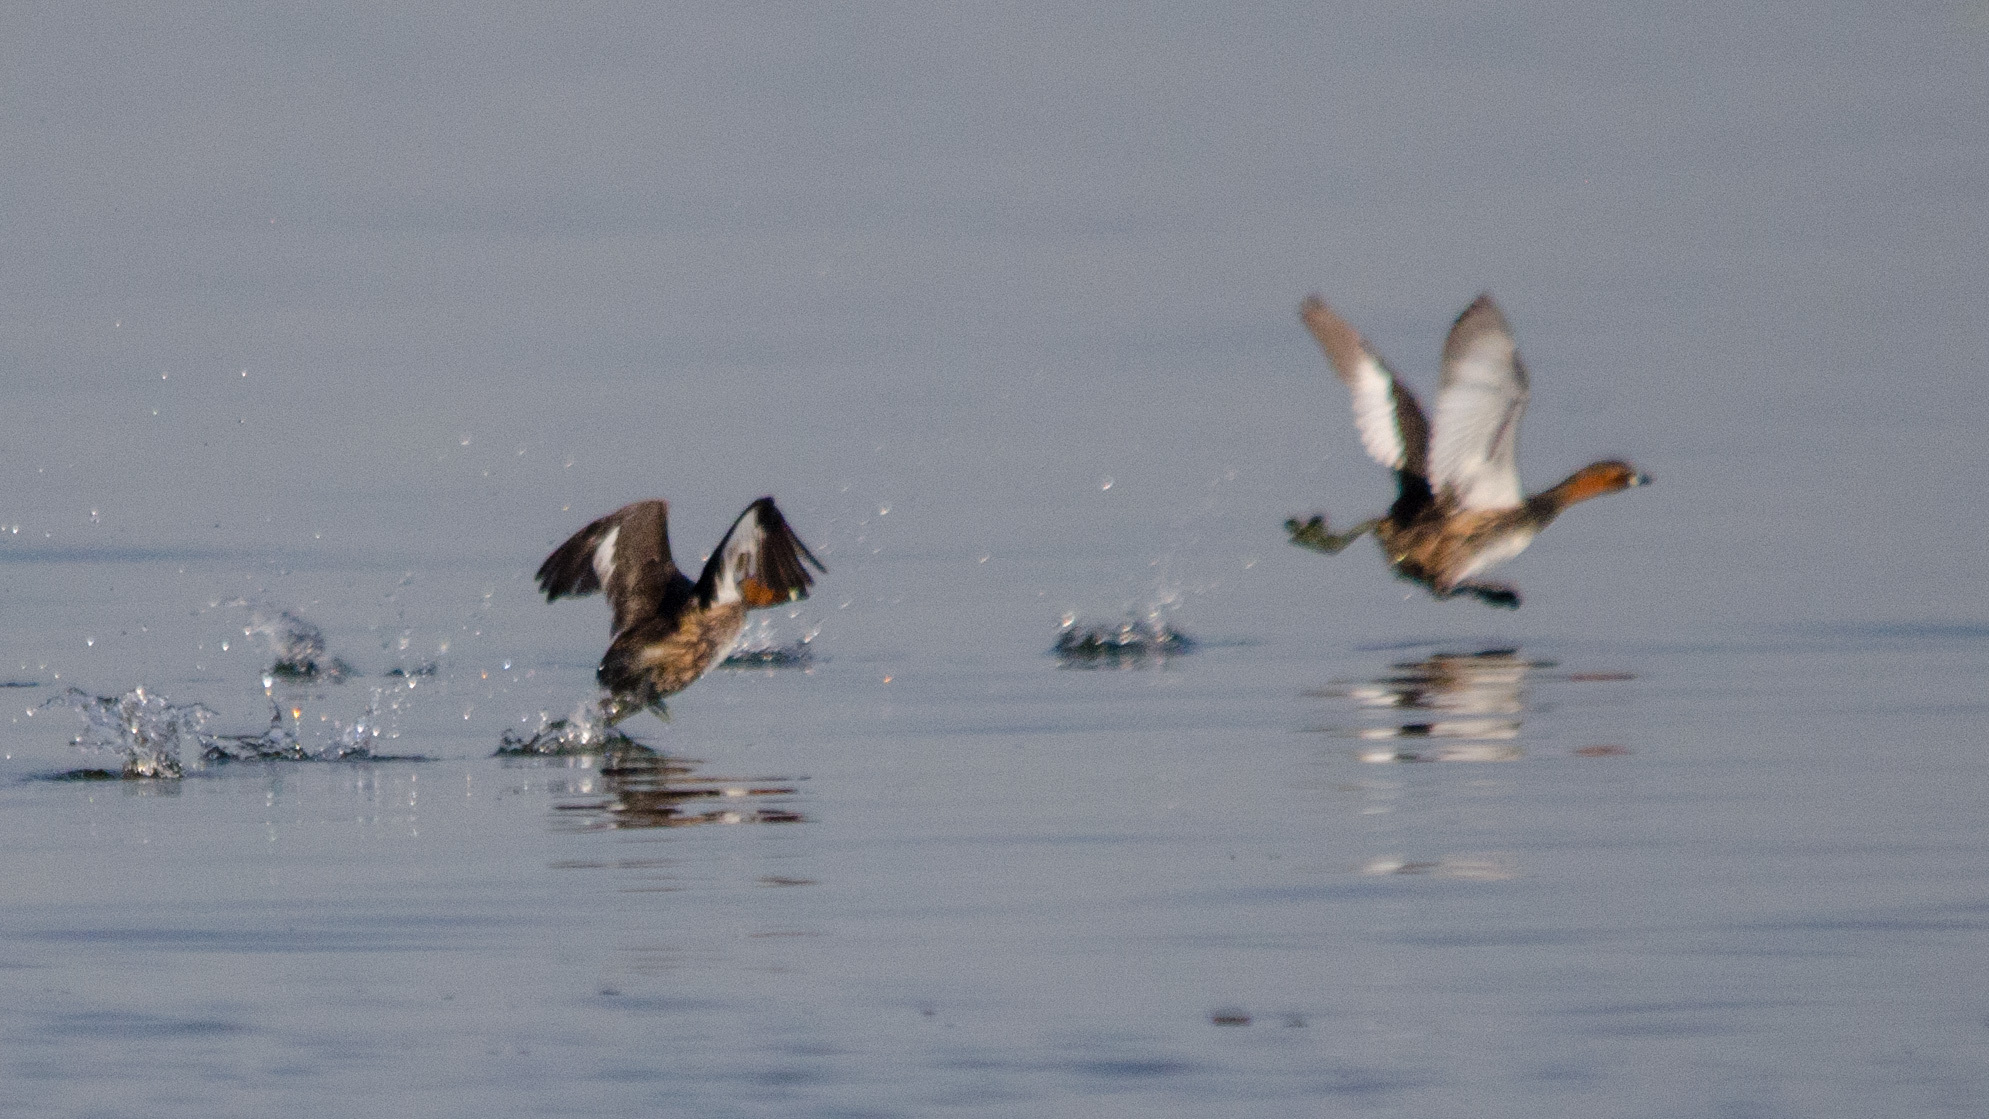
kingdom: Animalia
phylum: Chordata
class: Aves
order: Podicipediformes
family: Podicipedidae
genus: Tachybaptus
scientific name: Tachybaptus ruficollis
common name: Little grebe
